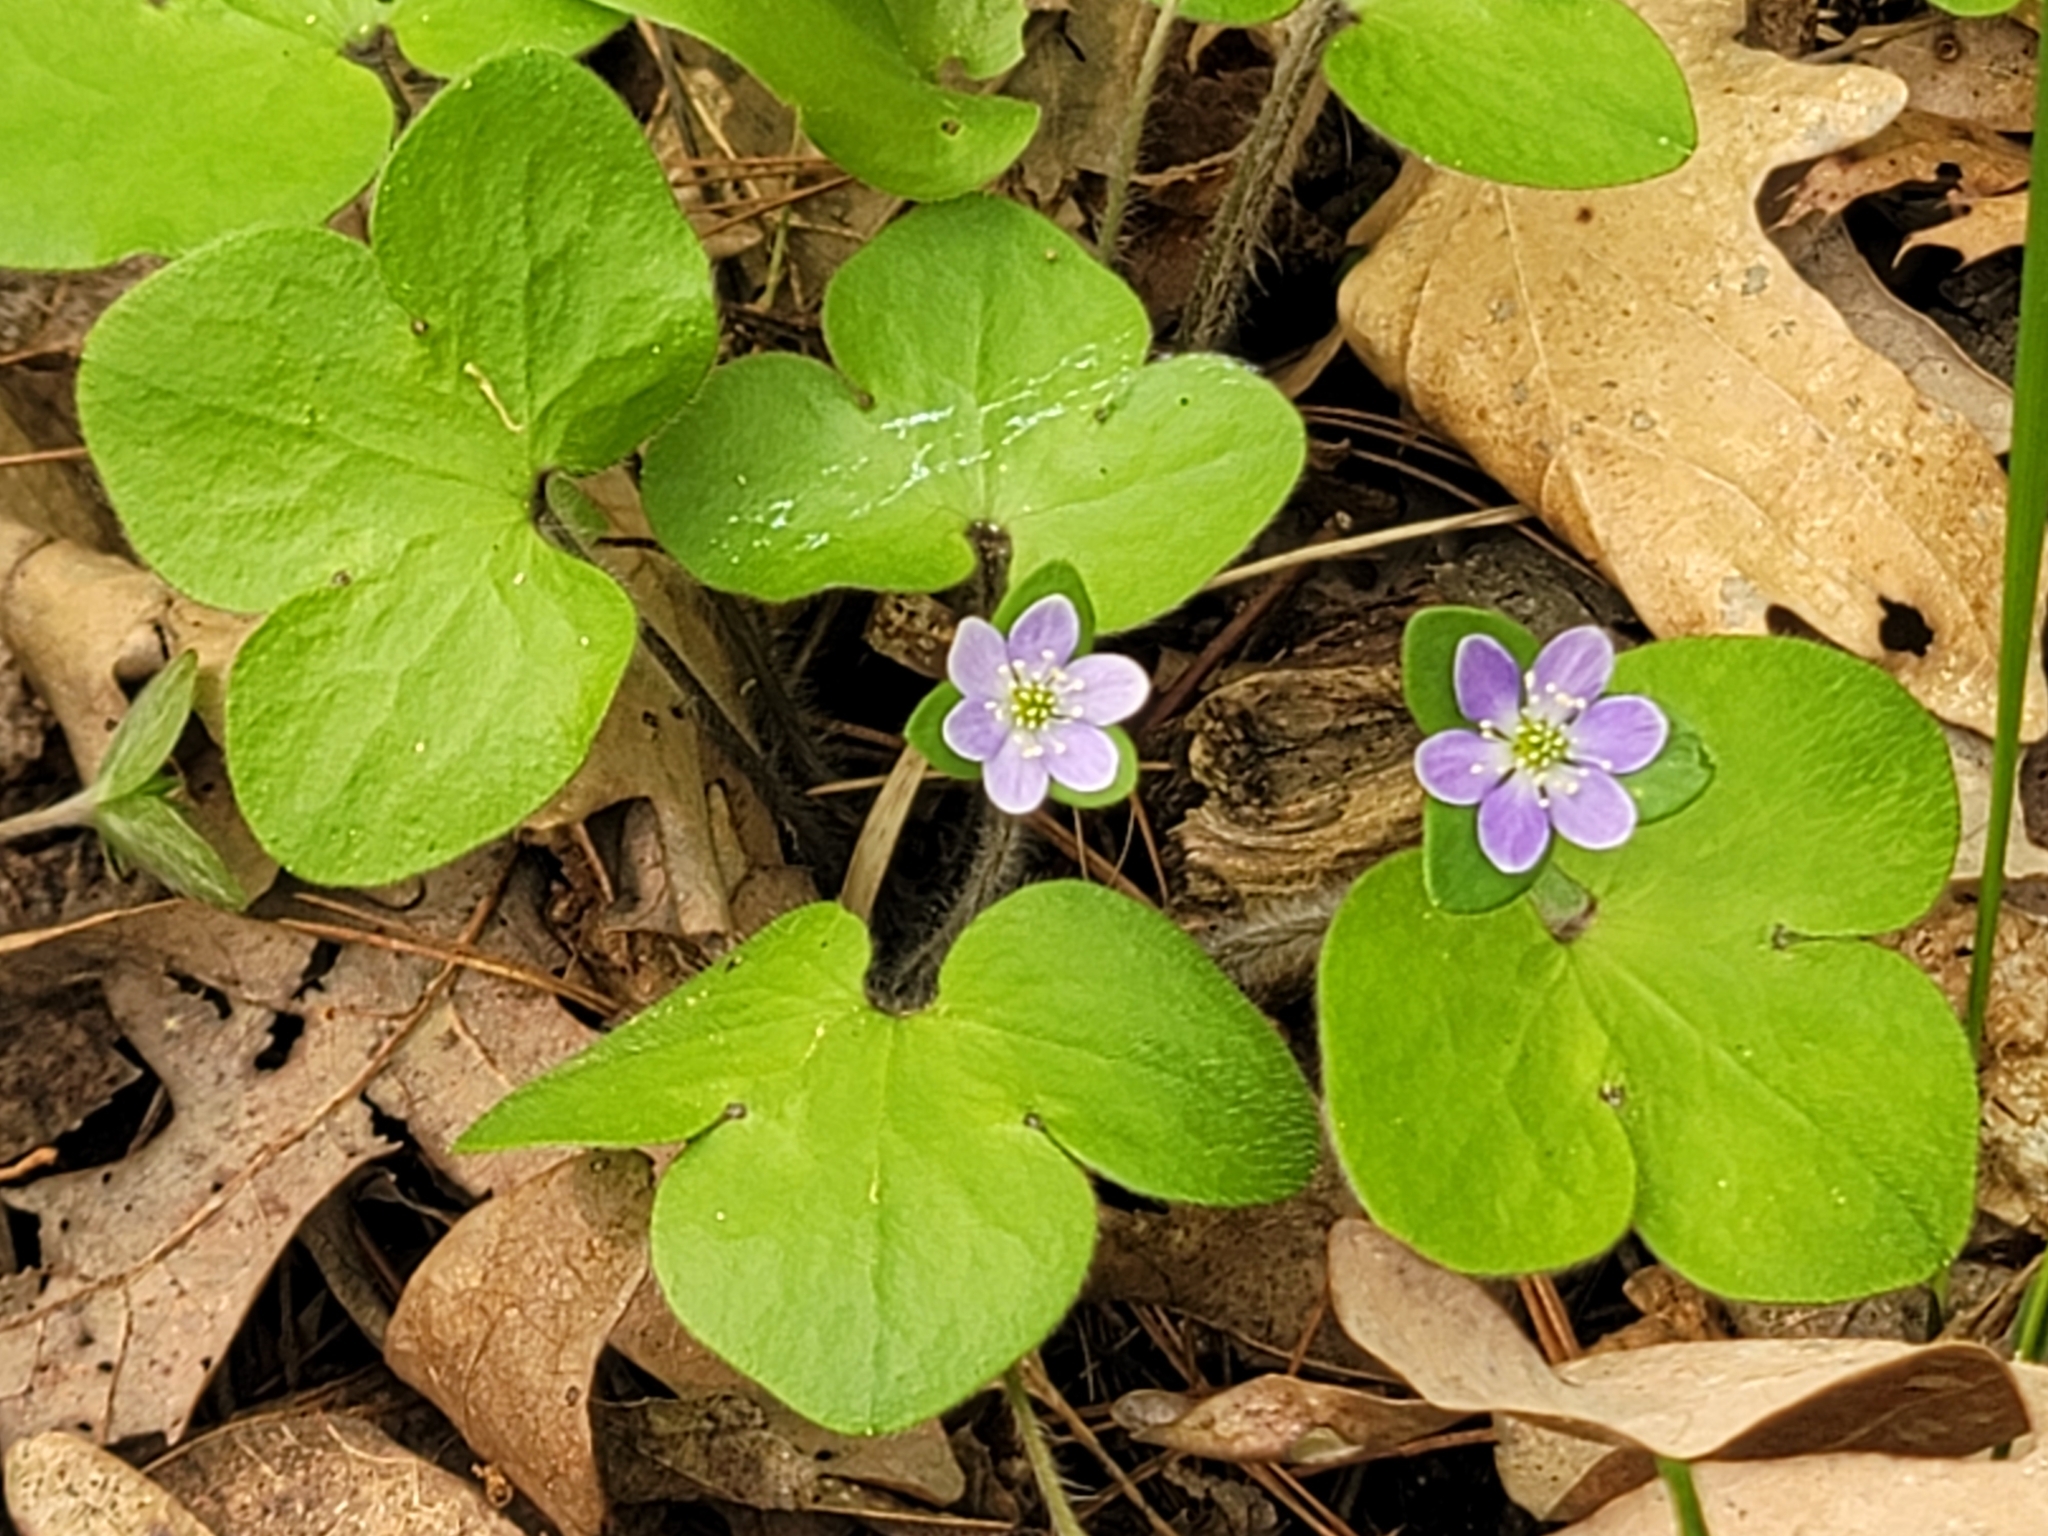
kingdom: Plantae
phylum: Tracheophyta
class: Magnoliopsida
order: Ranunculales
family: Ranunculaceae
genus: Hepatica
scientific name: Hepatica americana
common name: American hepatica
